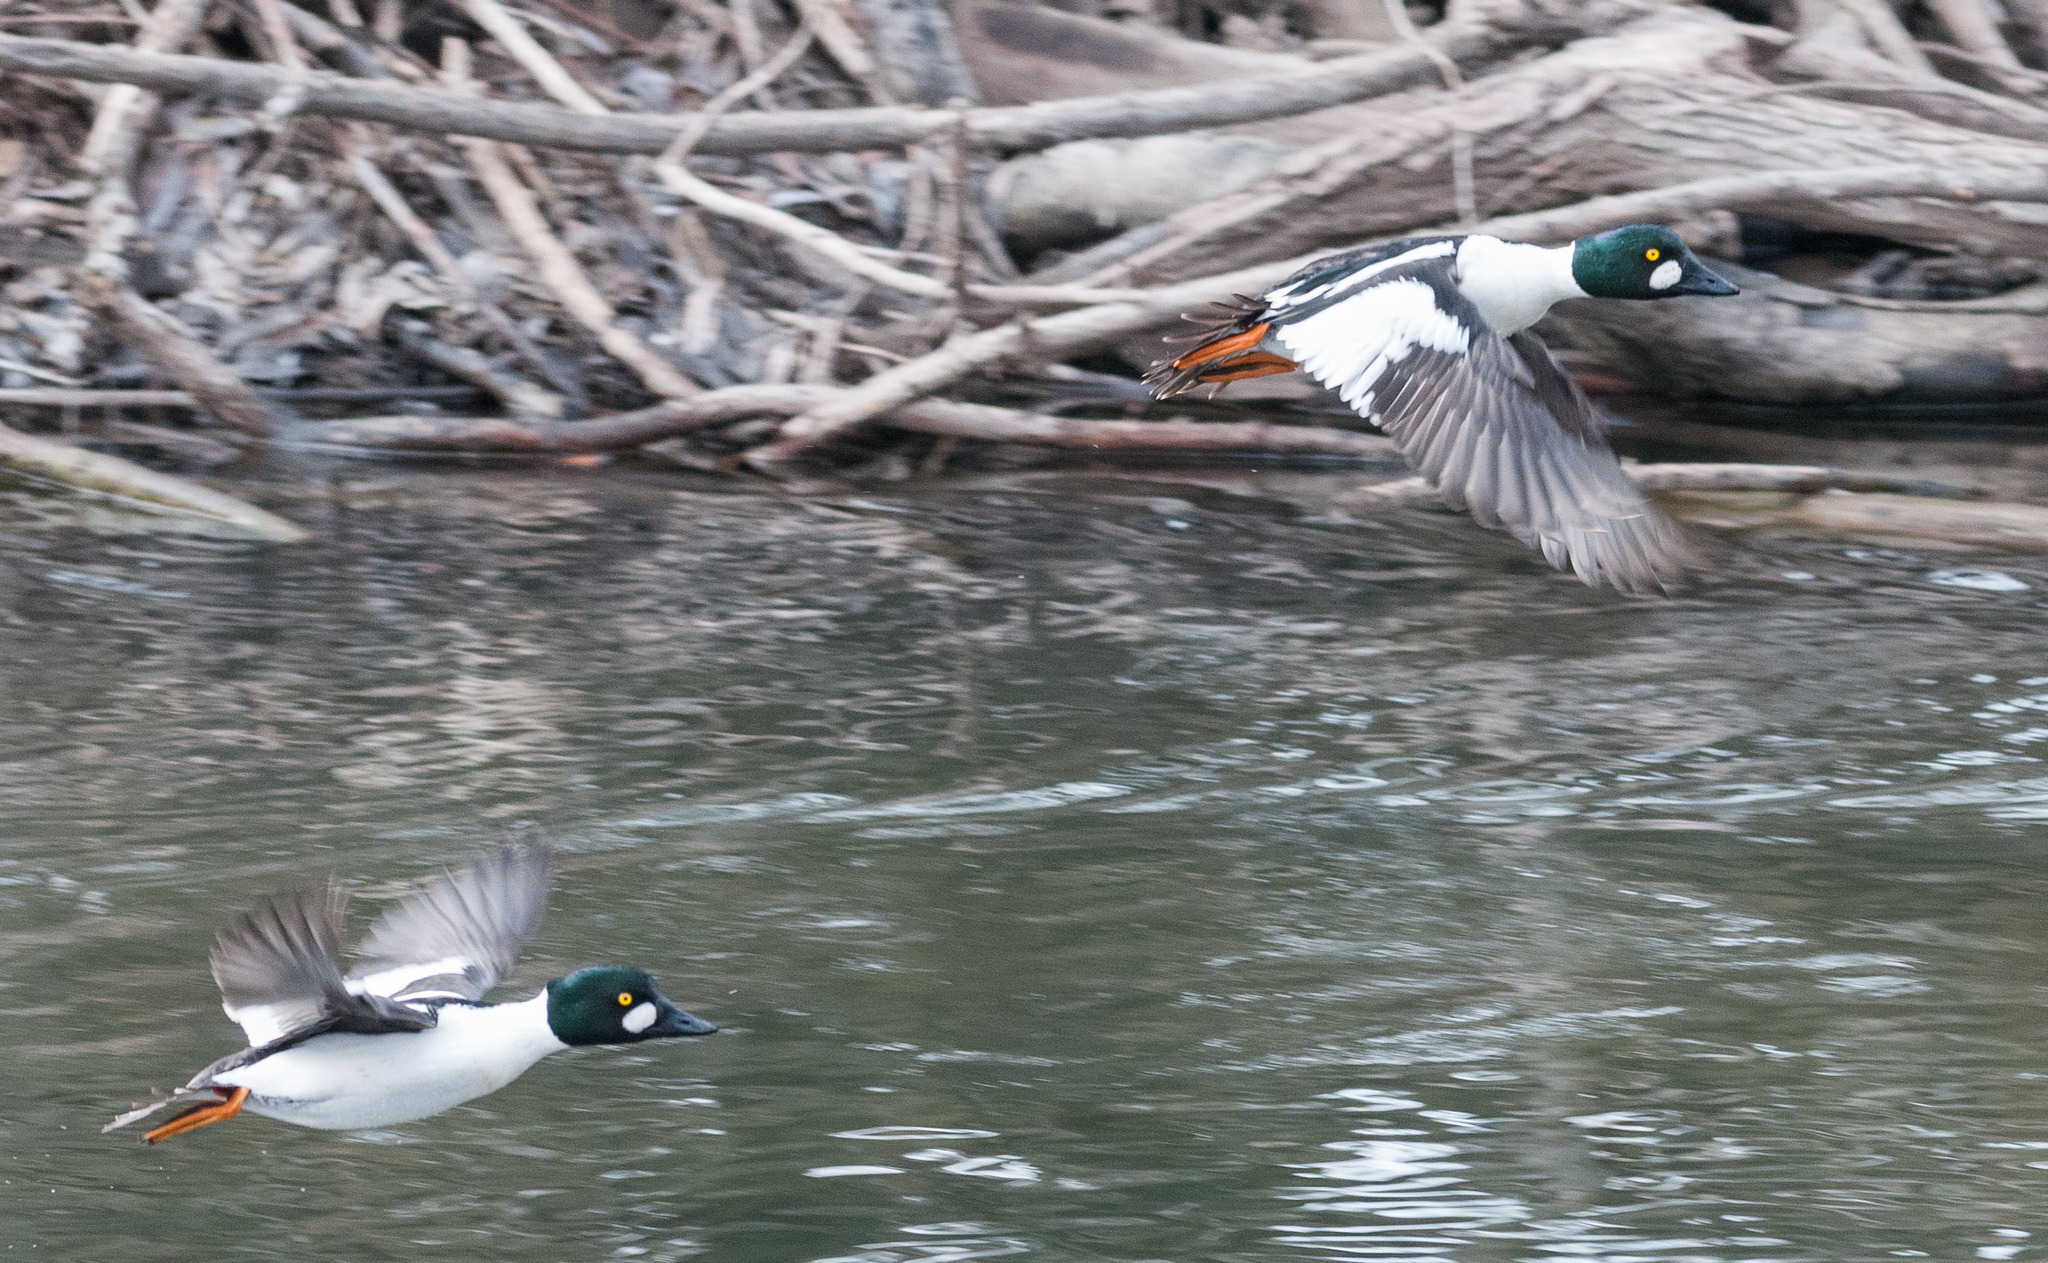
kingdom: Animalia
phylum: Chordata
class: Aves
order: Anseriformes
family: Anatidae
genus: Bucephala
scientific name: Bucephala clangula
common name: Common goldeneye
